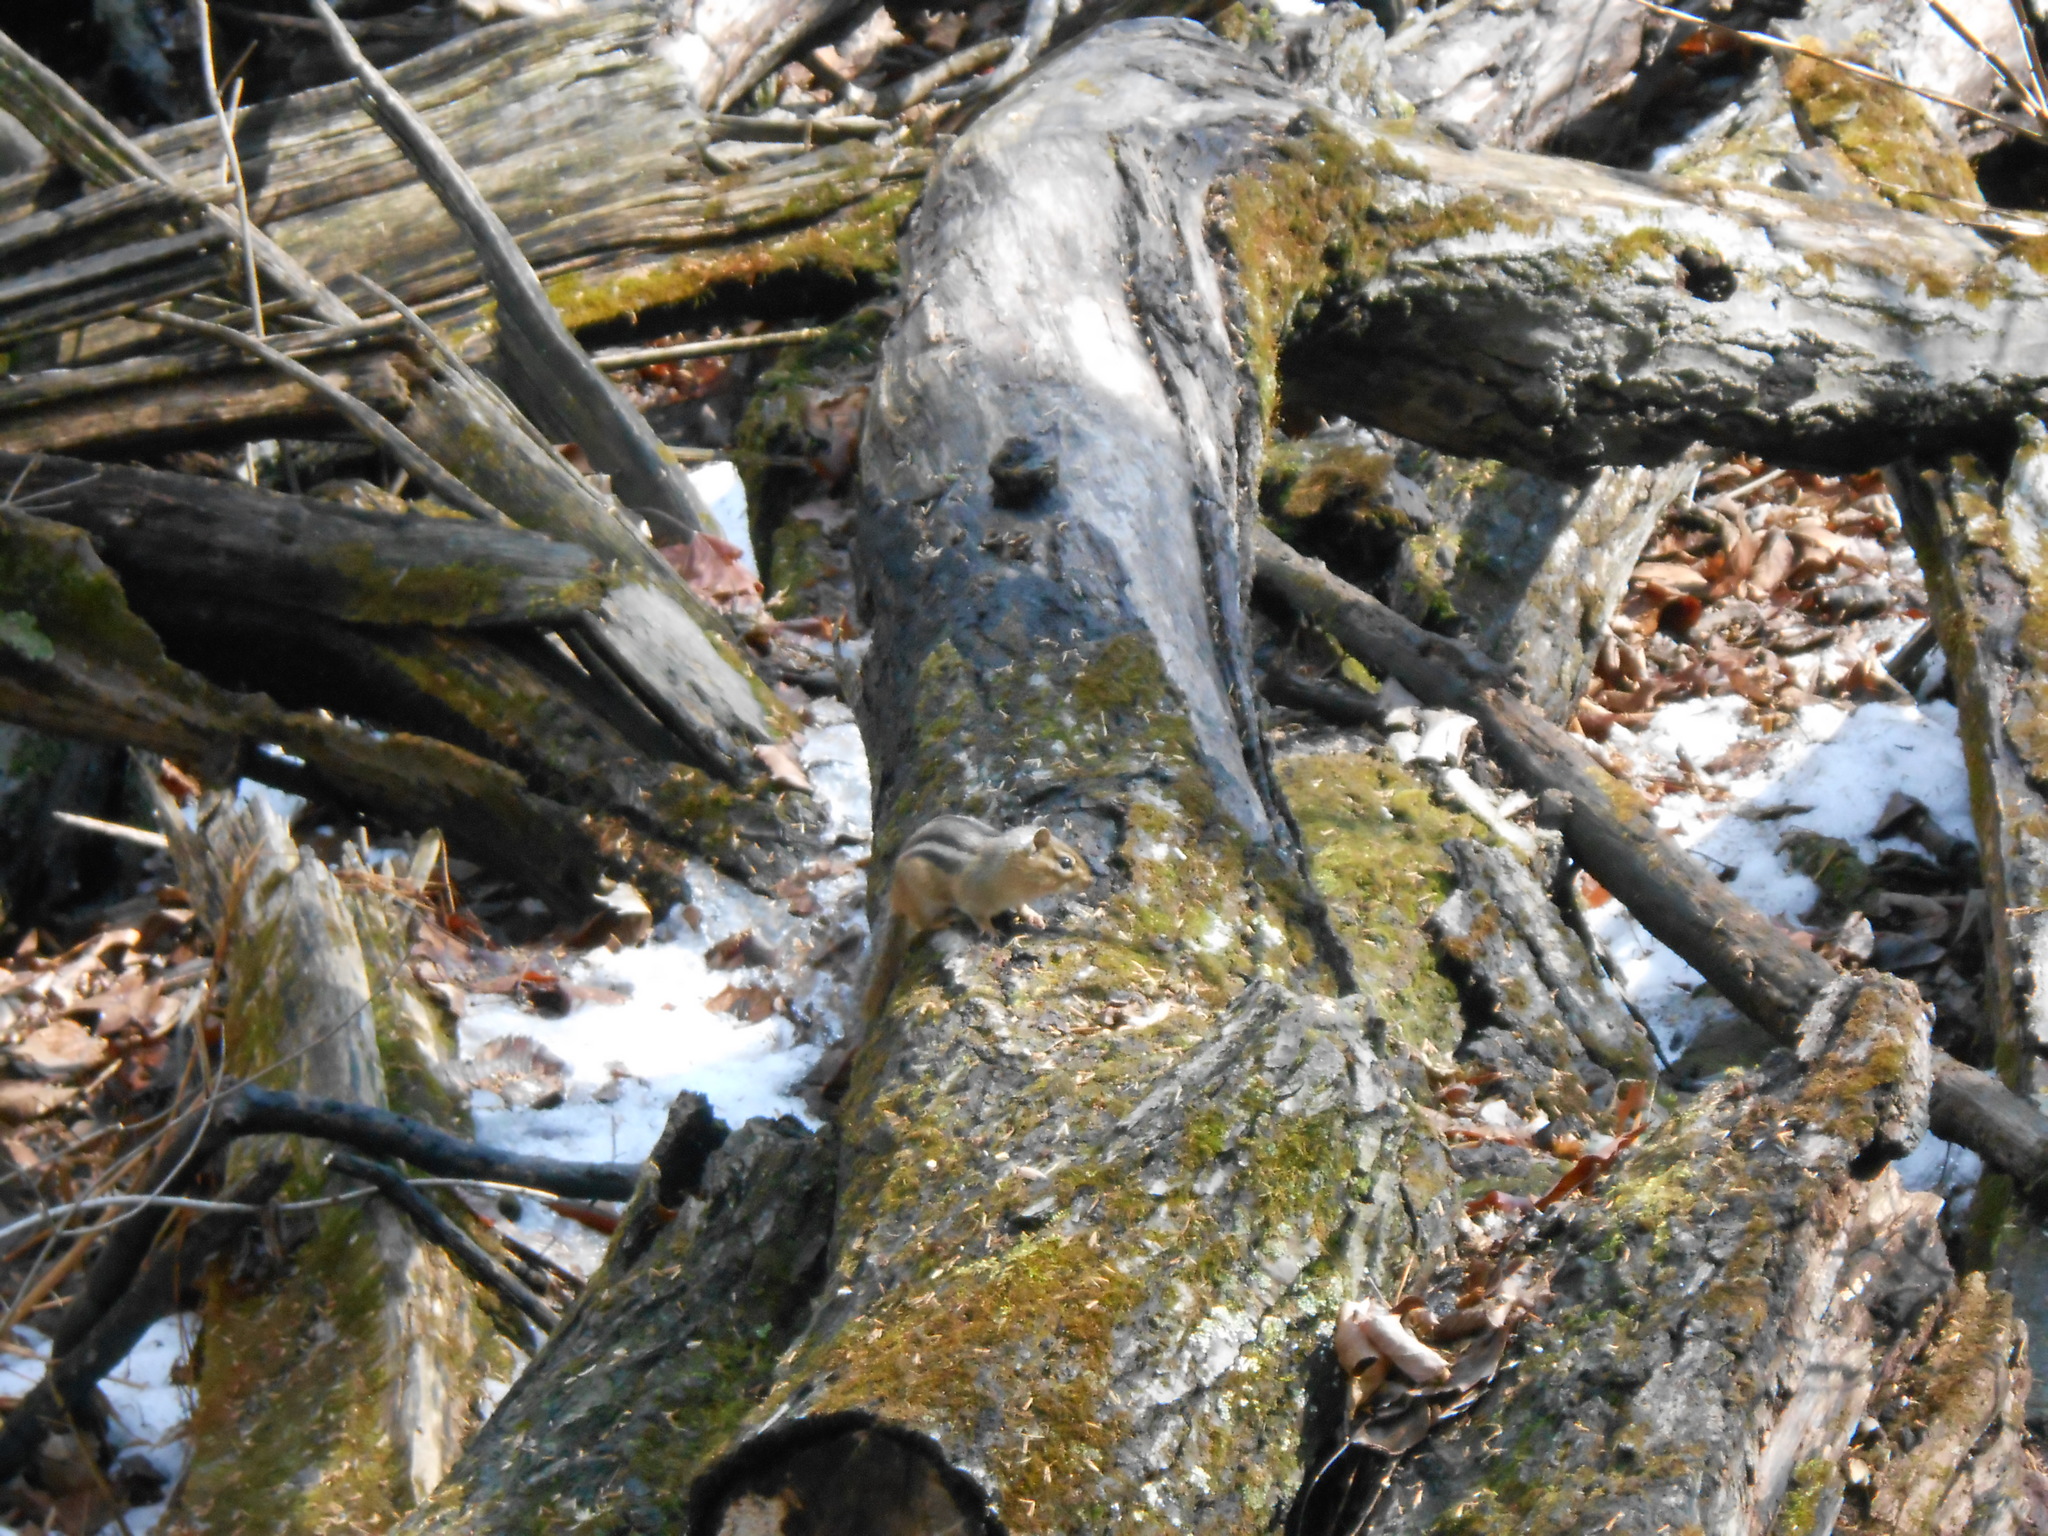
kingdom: Animalia
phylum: Chordata
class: Mammalia
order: Rodentia
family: Sciuridae
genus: Tamias
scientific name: Tamias striatus
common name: Eastern chipmunk
